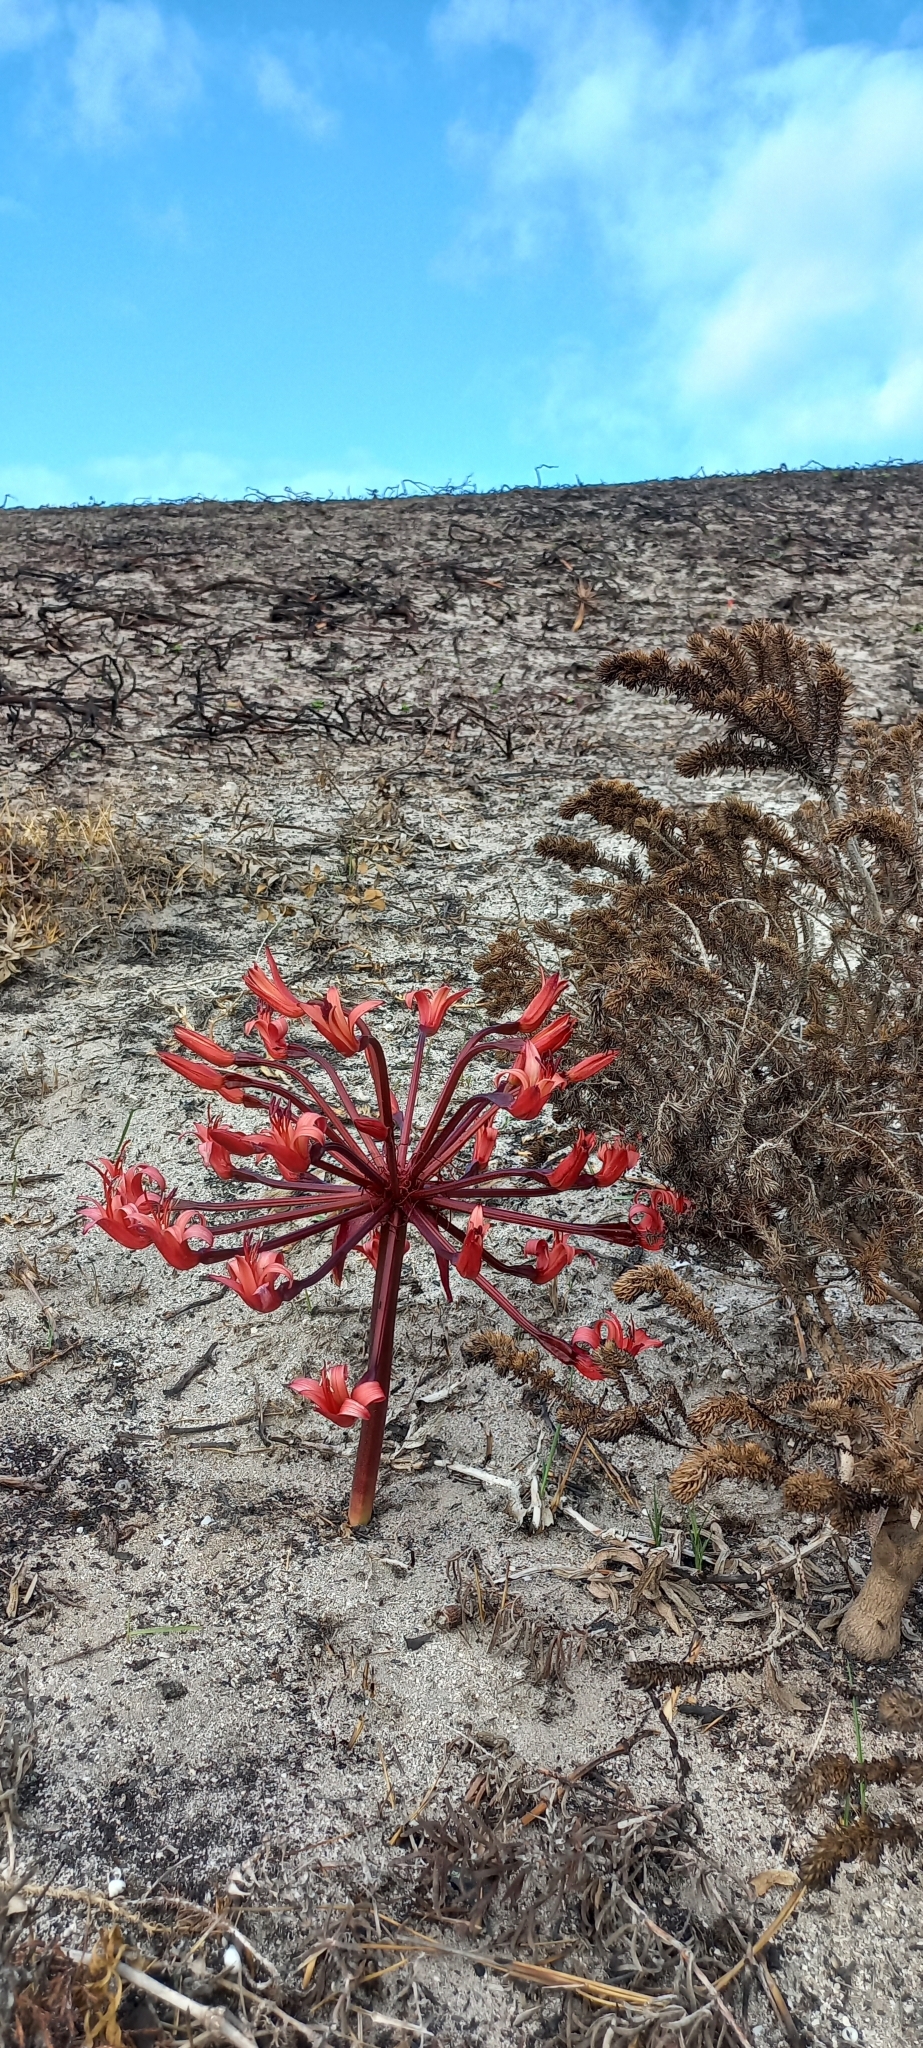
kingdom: Plantae
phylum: Tracheophyta
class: Liliopsida
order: Asparagales
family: Amaryllidaceae
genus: Brunsvigia
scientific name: Brunsvigia orientalis
